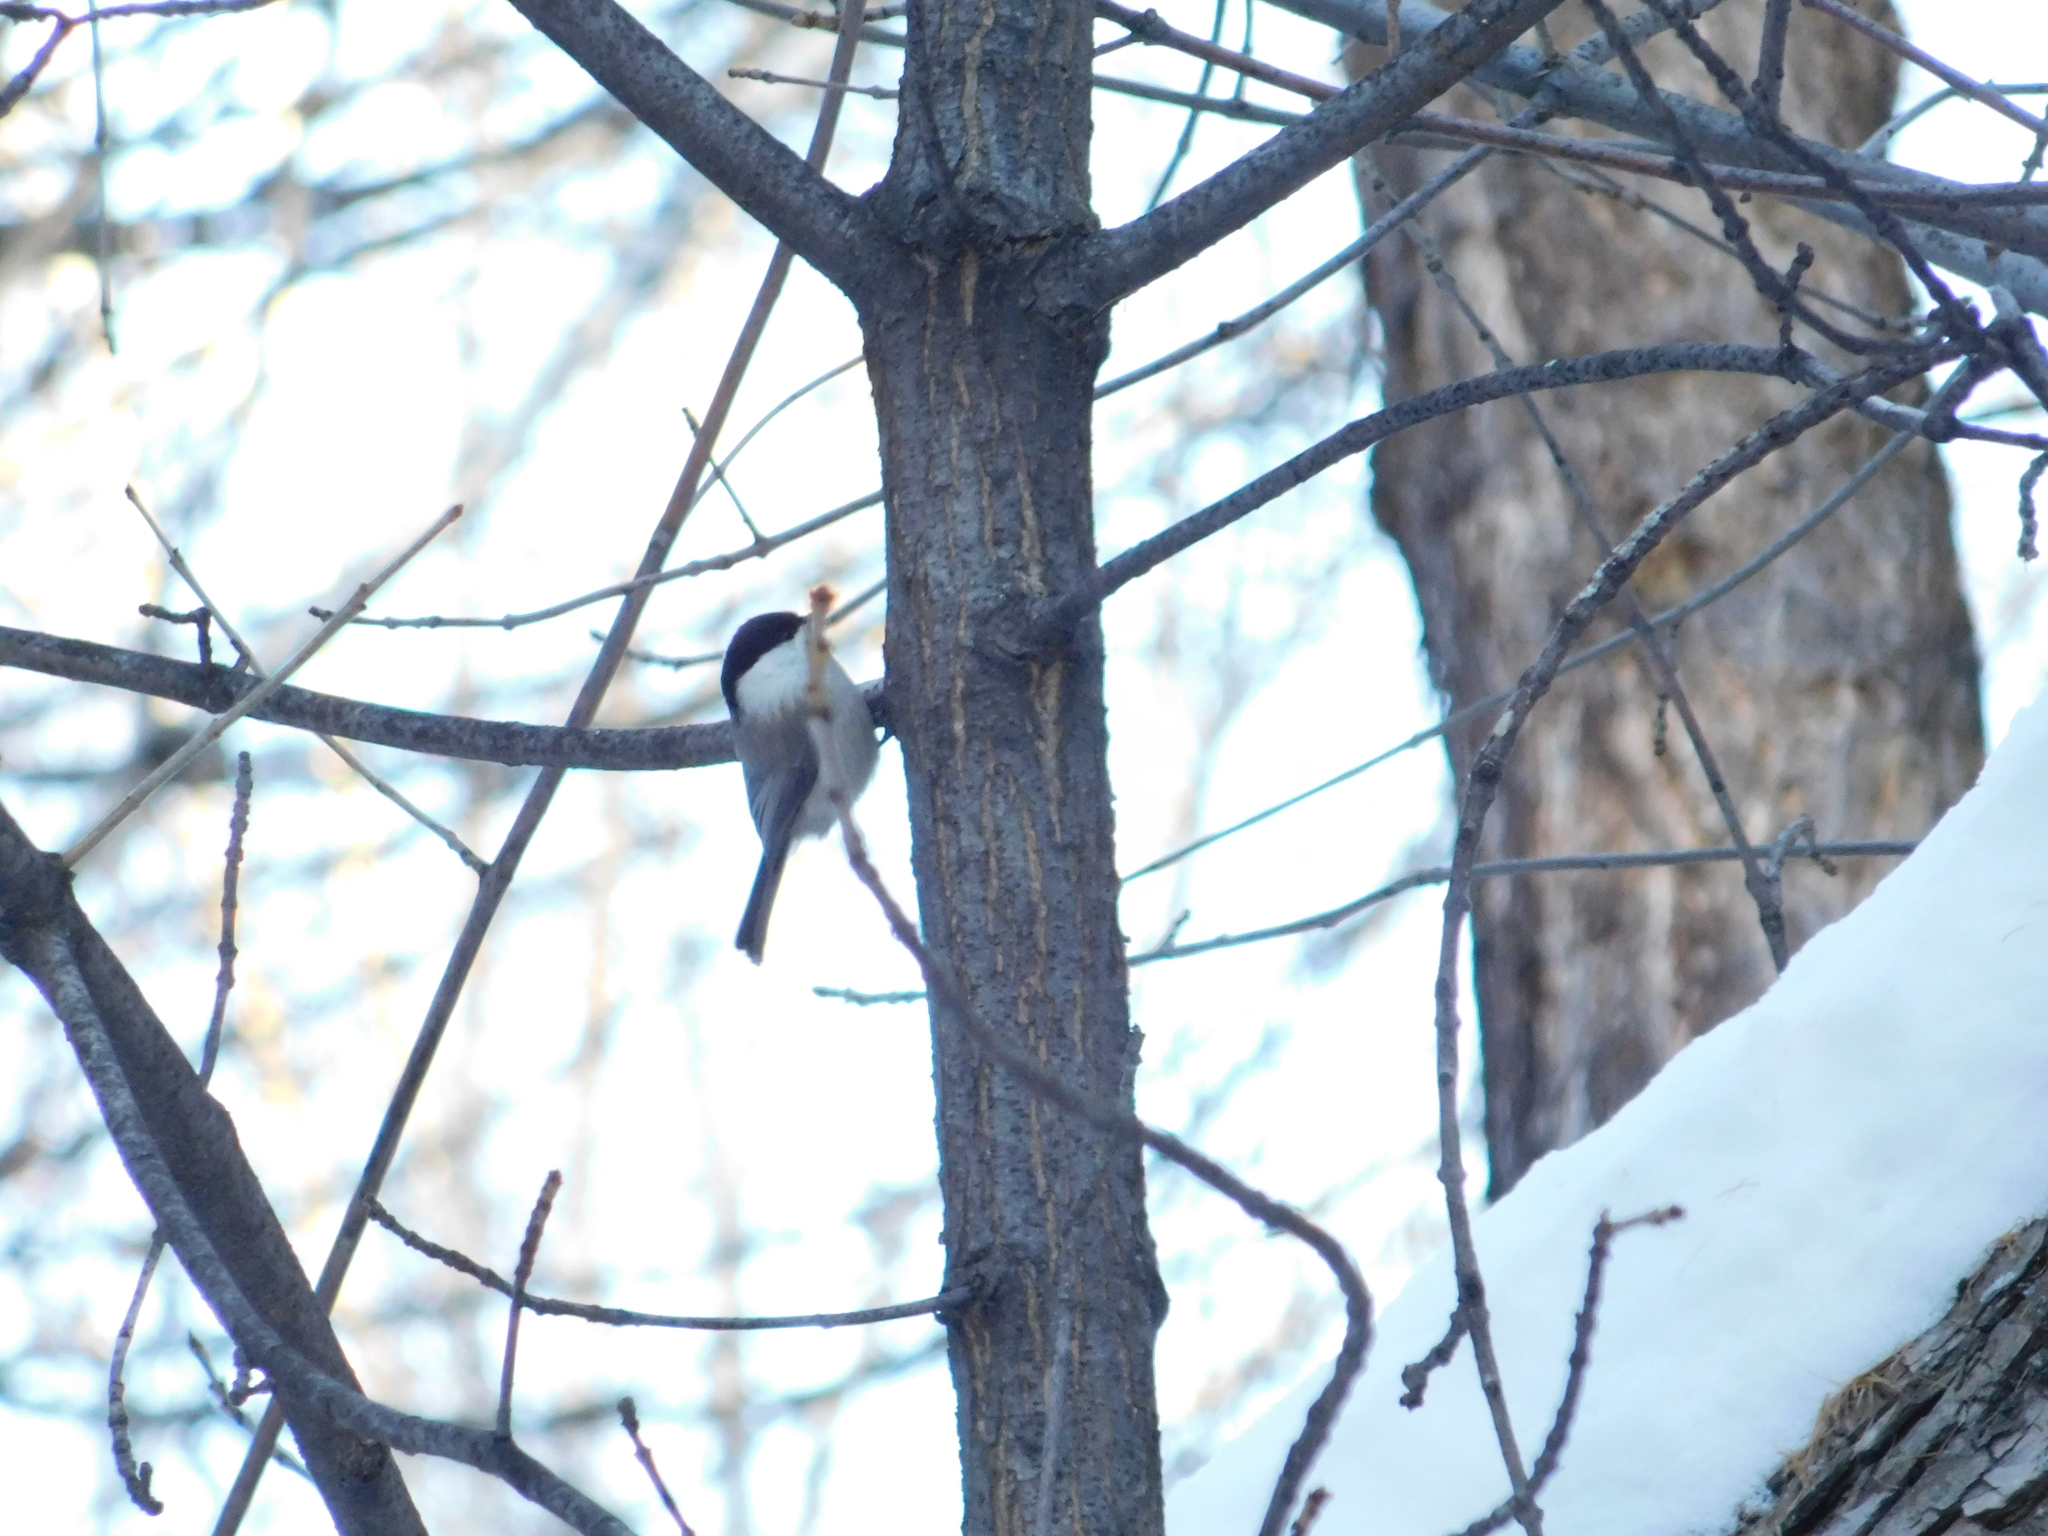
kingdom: Animalia
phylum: Chordata
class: Aves
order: Passeriformes
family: Paridae
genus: Poecile
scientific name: Poecile montanus
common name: Willow tit
